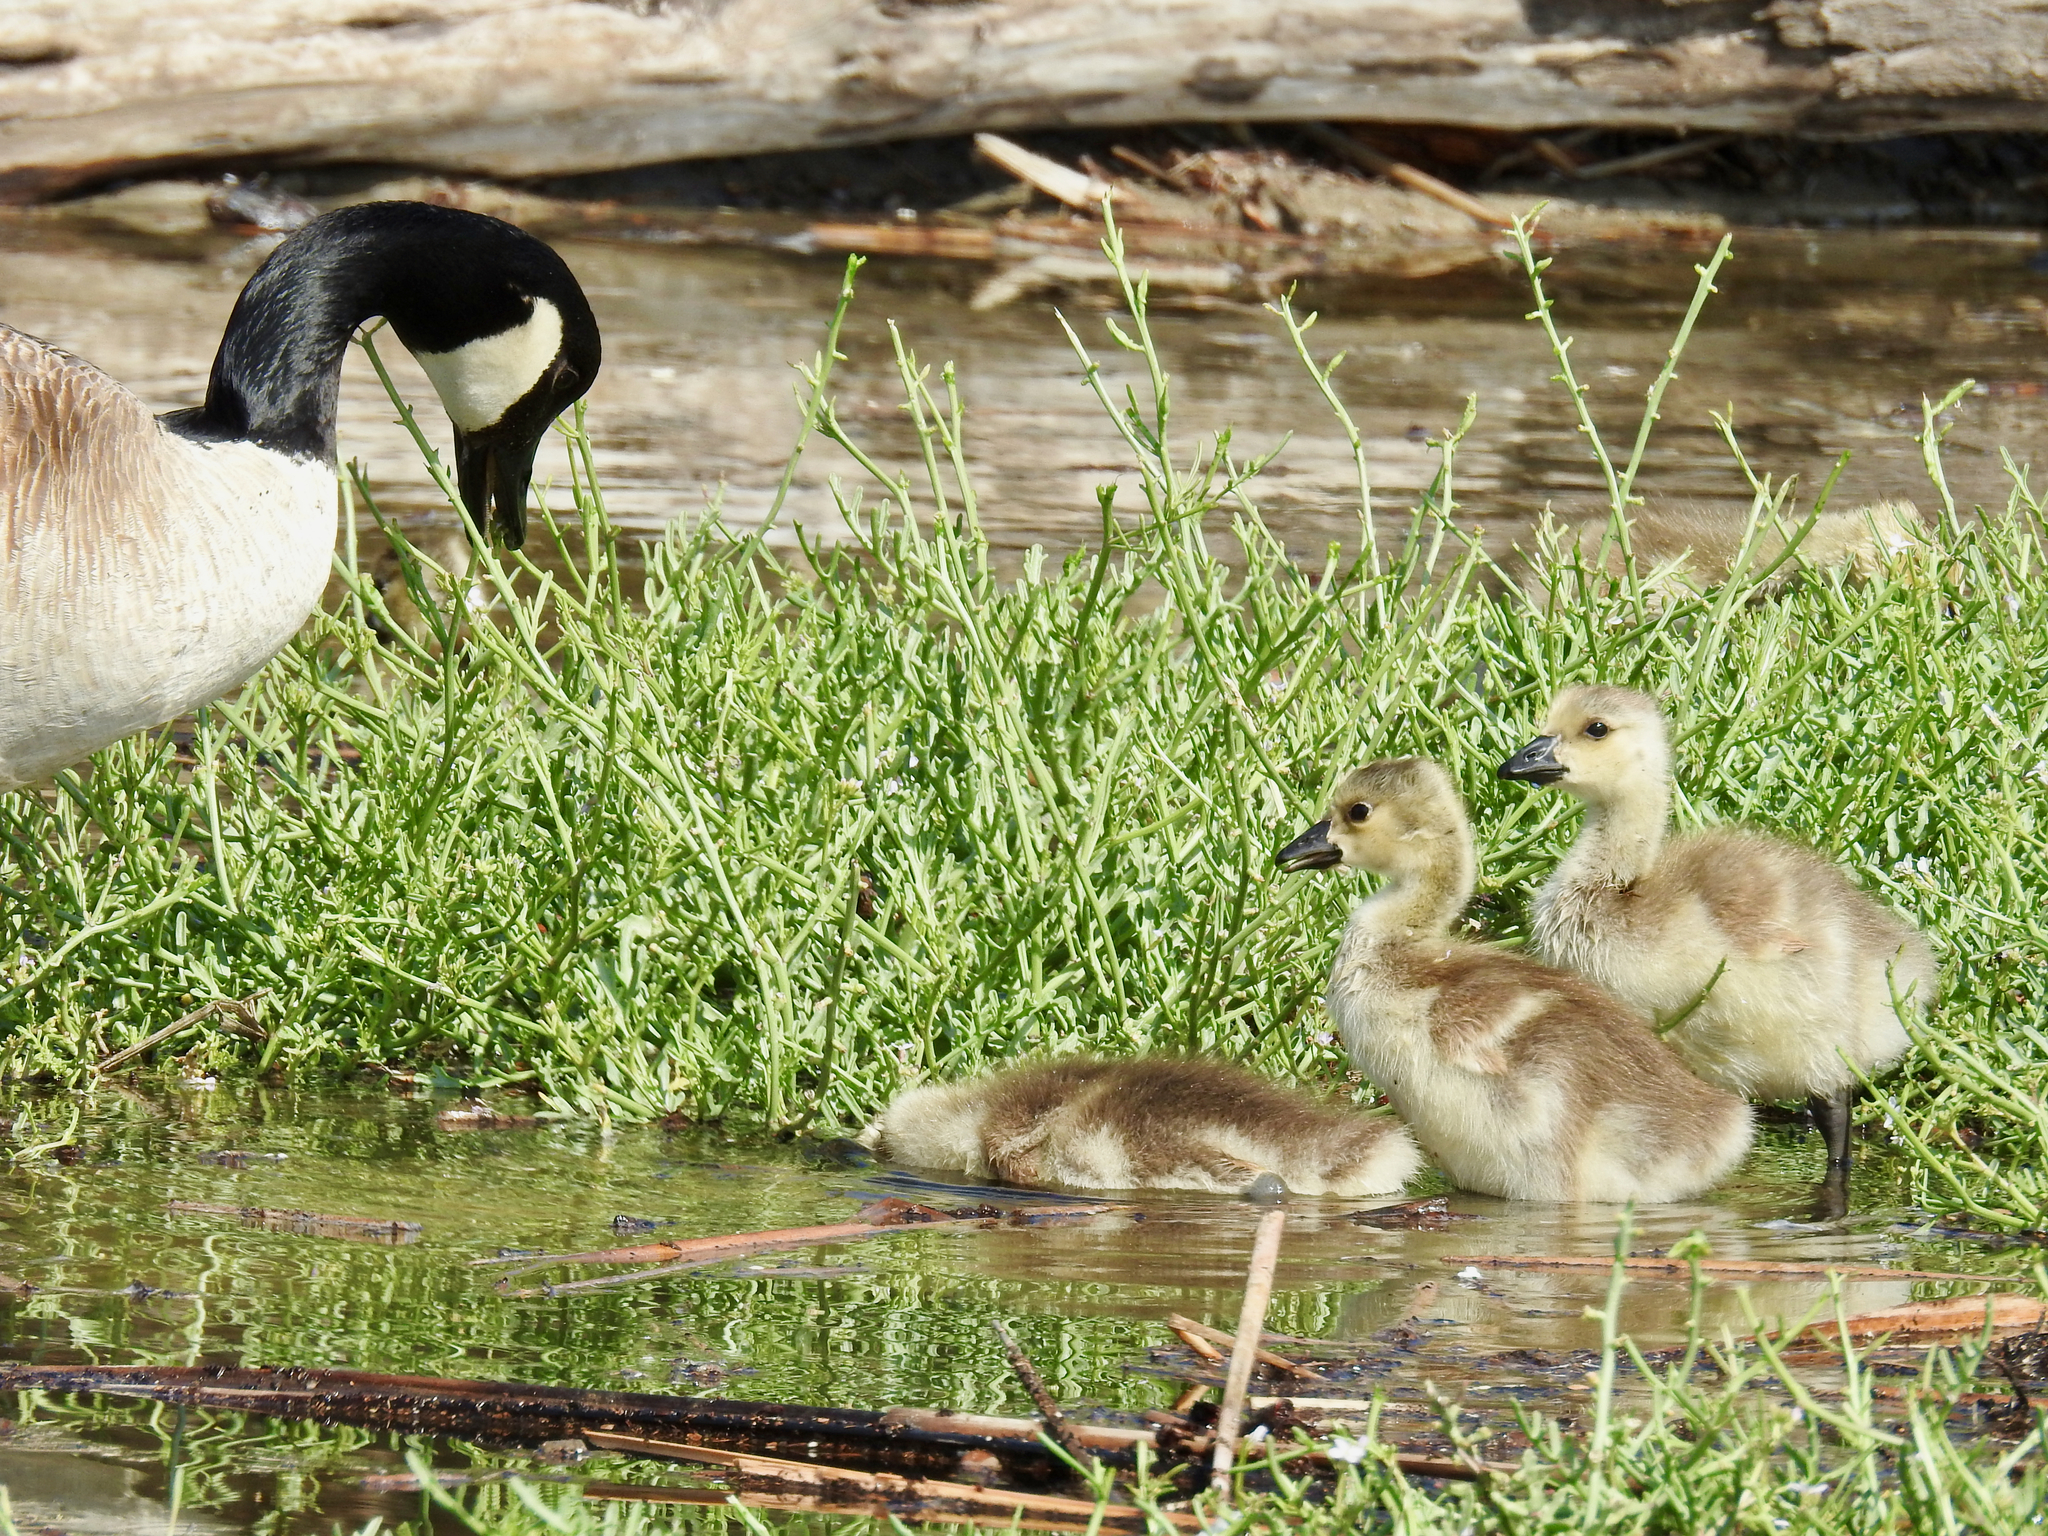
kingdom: Animalia
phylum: Chordata
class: Aves
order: Anseriformes
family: Anatidae
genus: Branta
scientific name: Branta canadensis
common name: Canada goose
